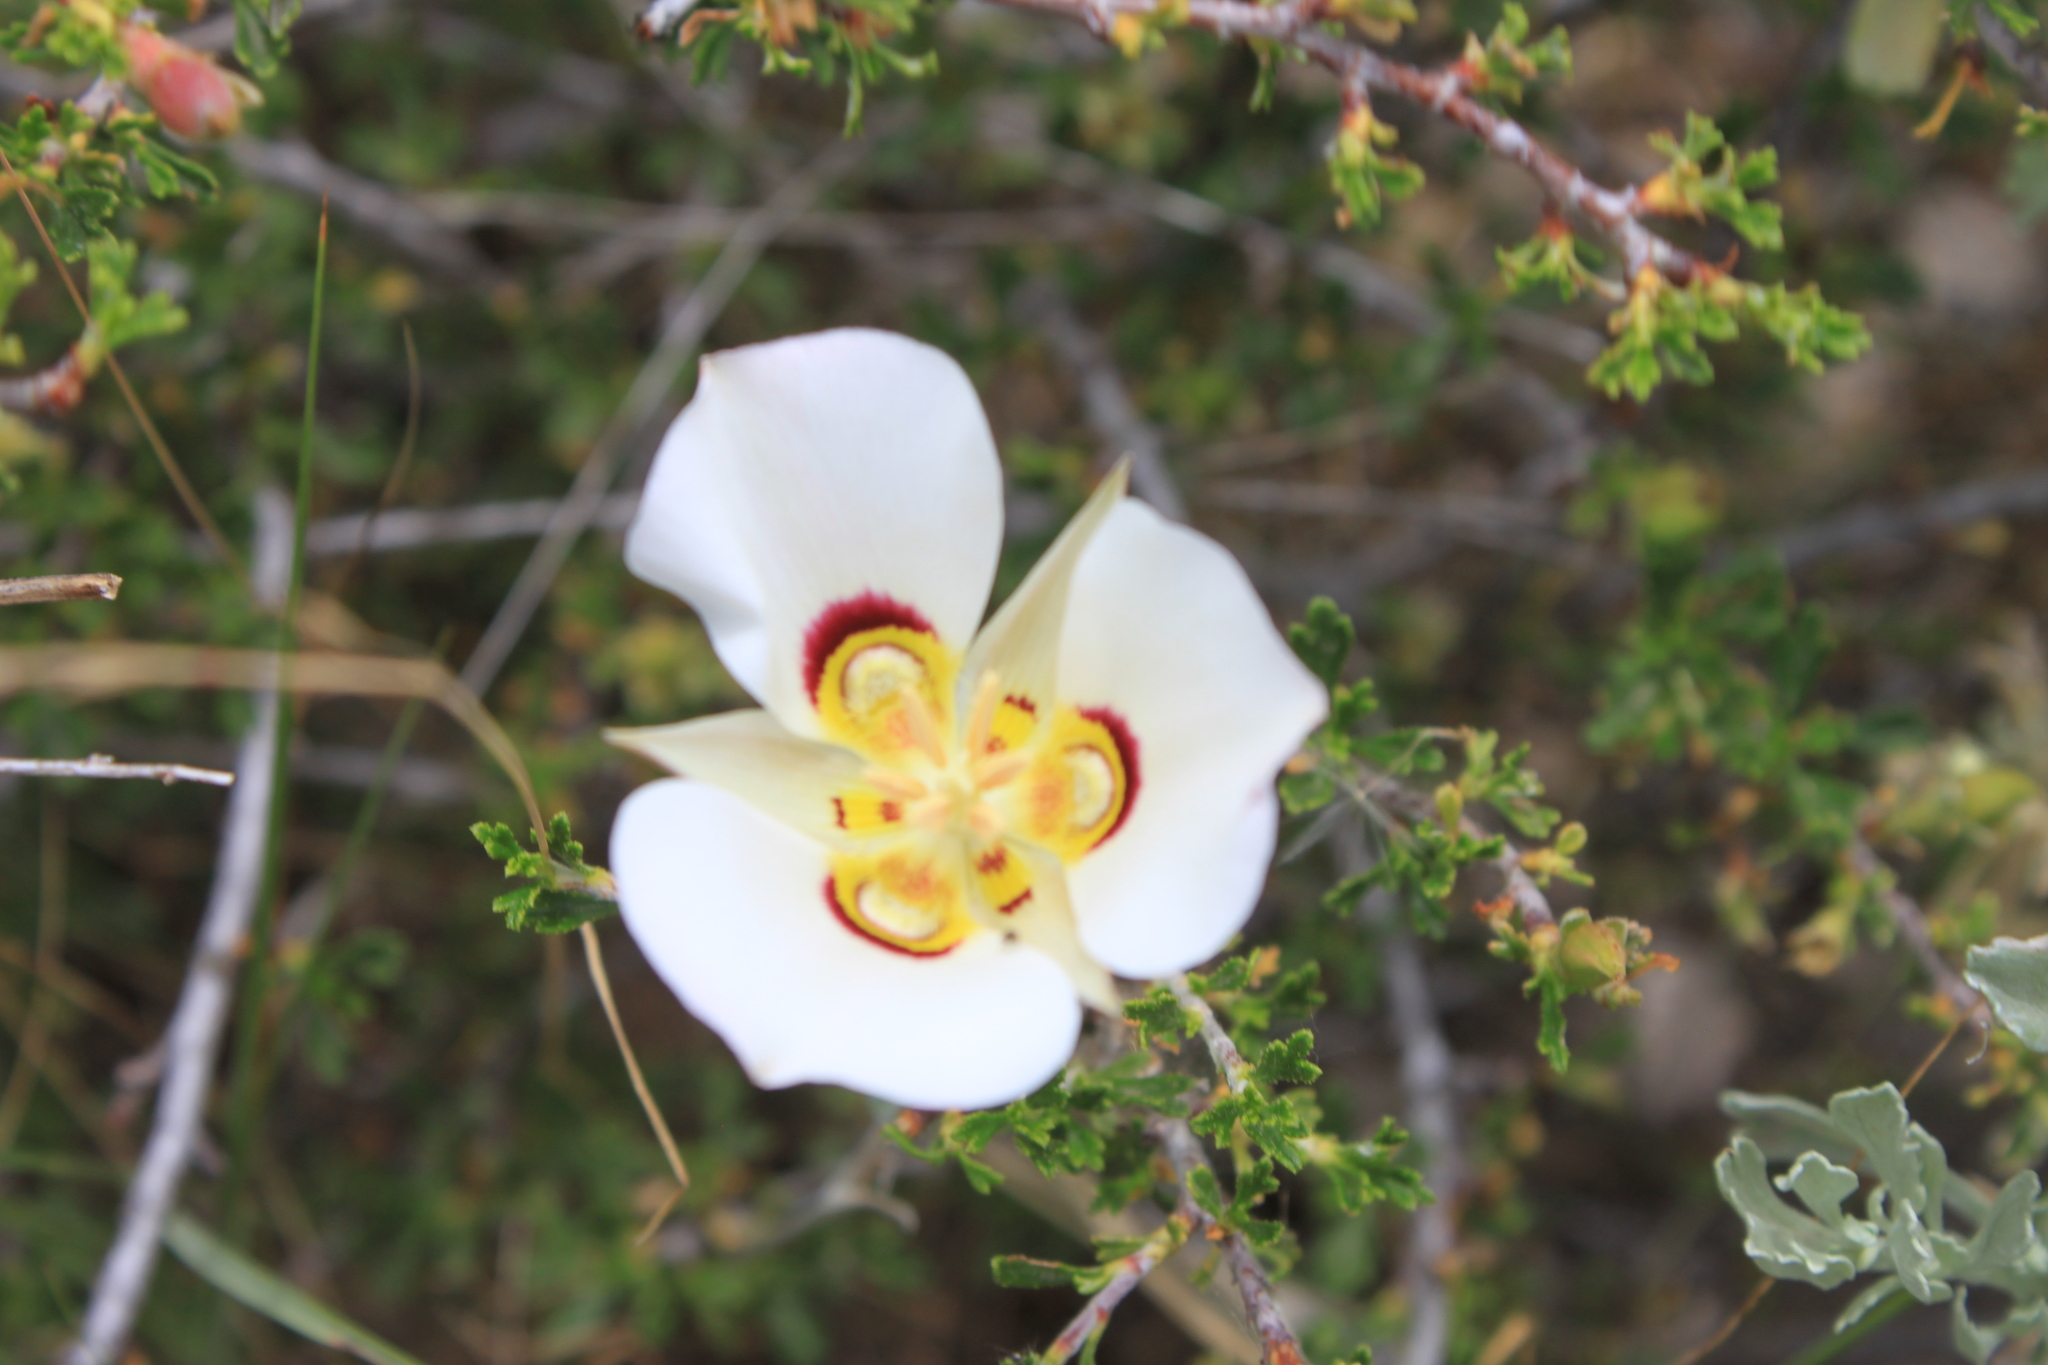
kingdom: Plantae
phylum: Tracheophyta
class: Liliopsida
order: Liliales
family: Liliaceae
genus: Calochortus
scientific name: Calochortus nuttallii
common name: Sego-lily
